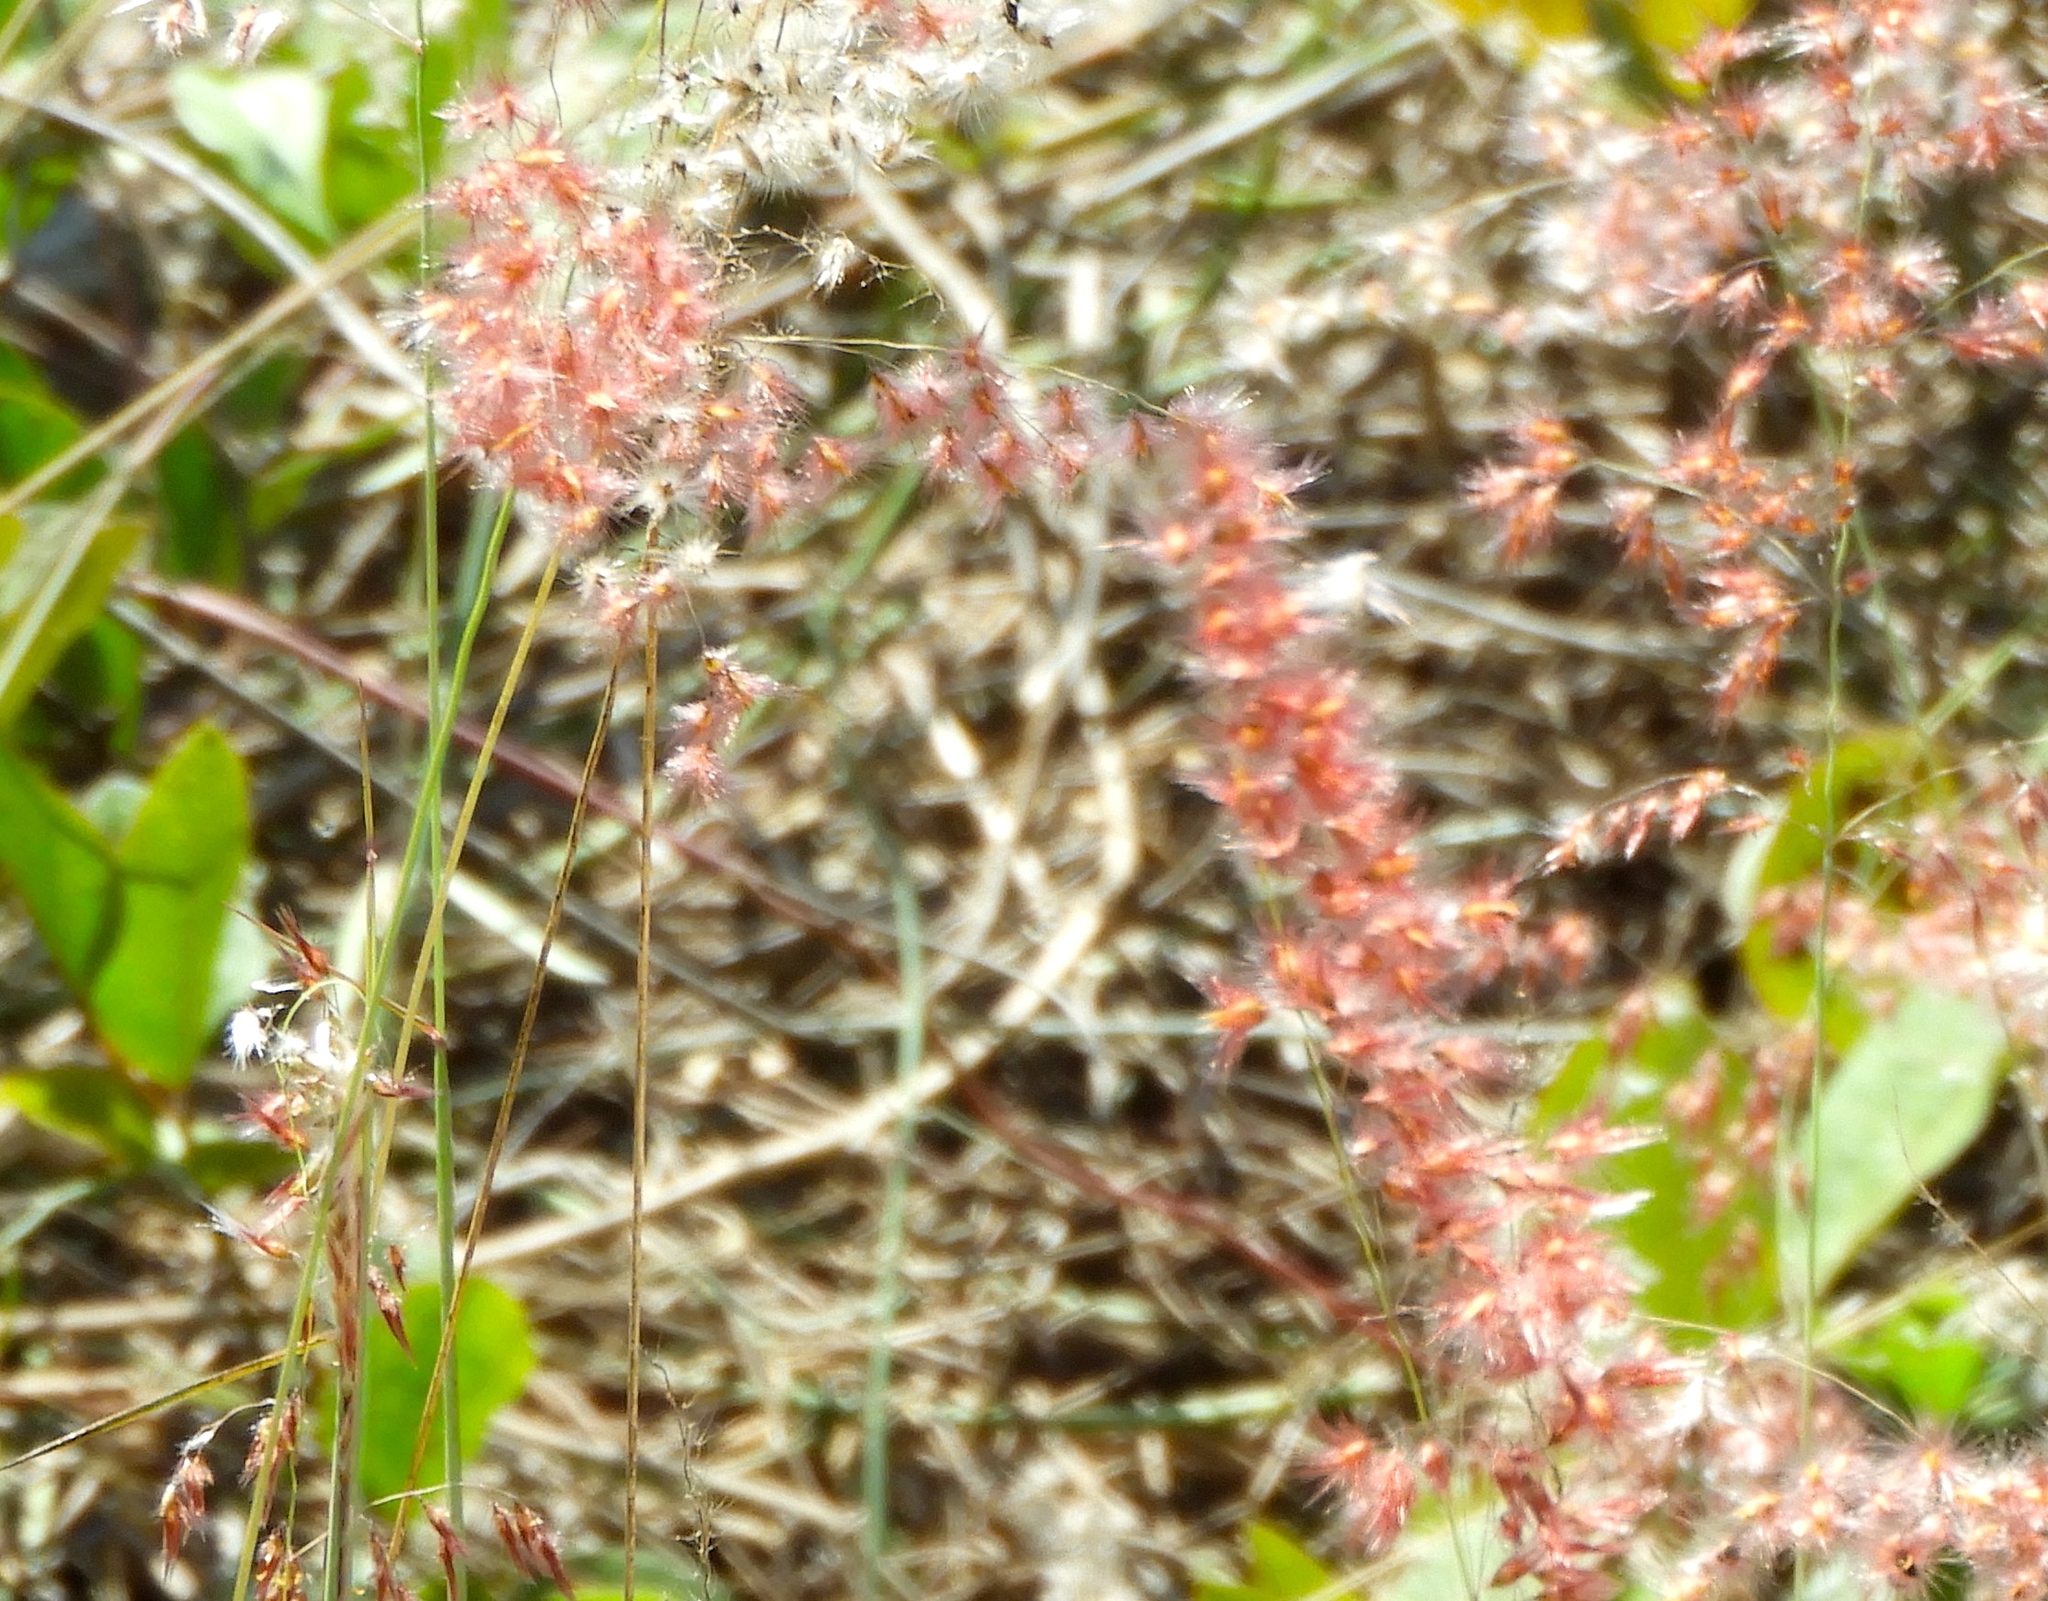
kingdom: Plantae
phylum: Tracheophyta
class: Liliopsida
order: Poales
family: Poaceae
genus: Melinis
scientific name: Melinis repens
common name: Rose natal grass
